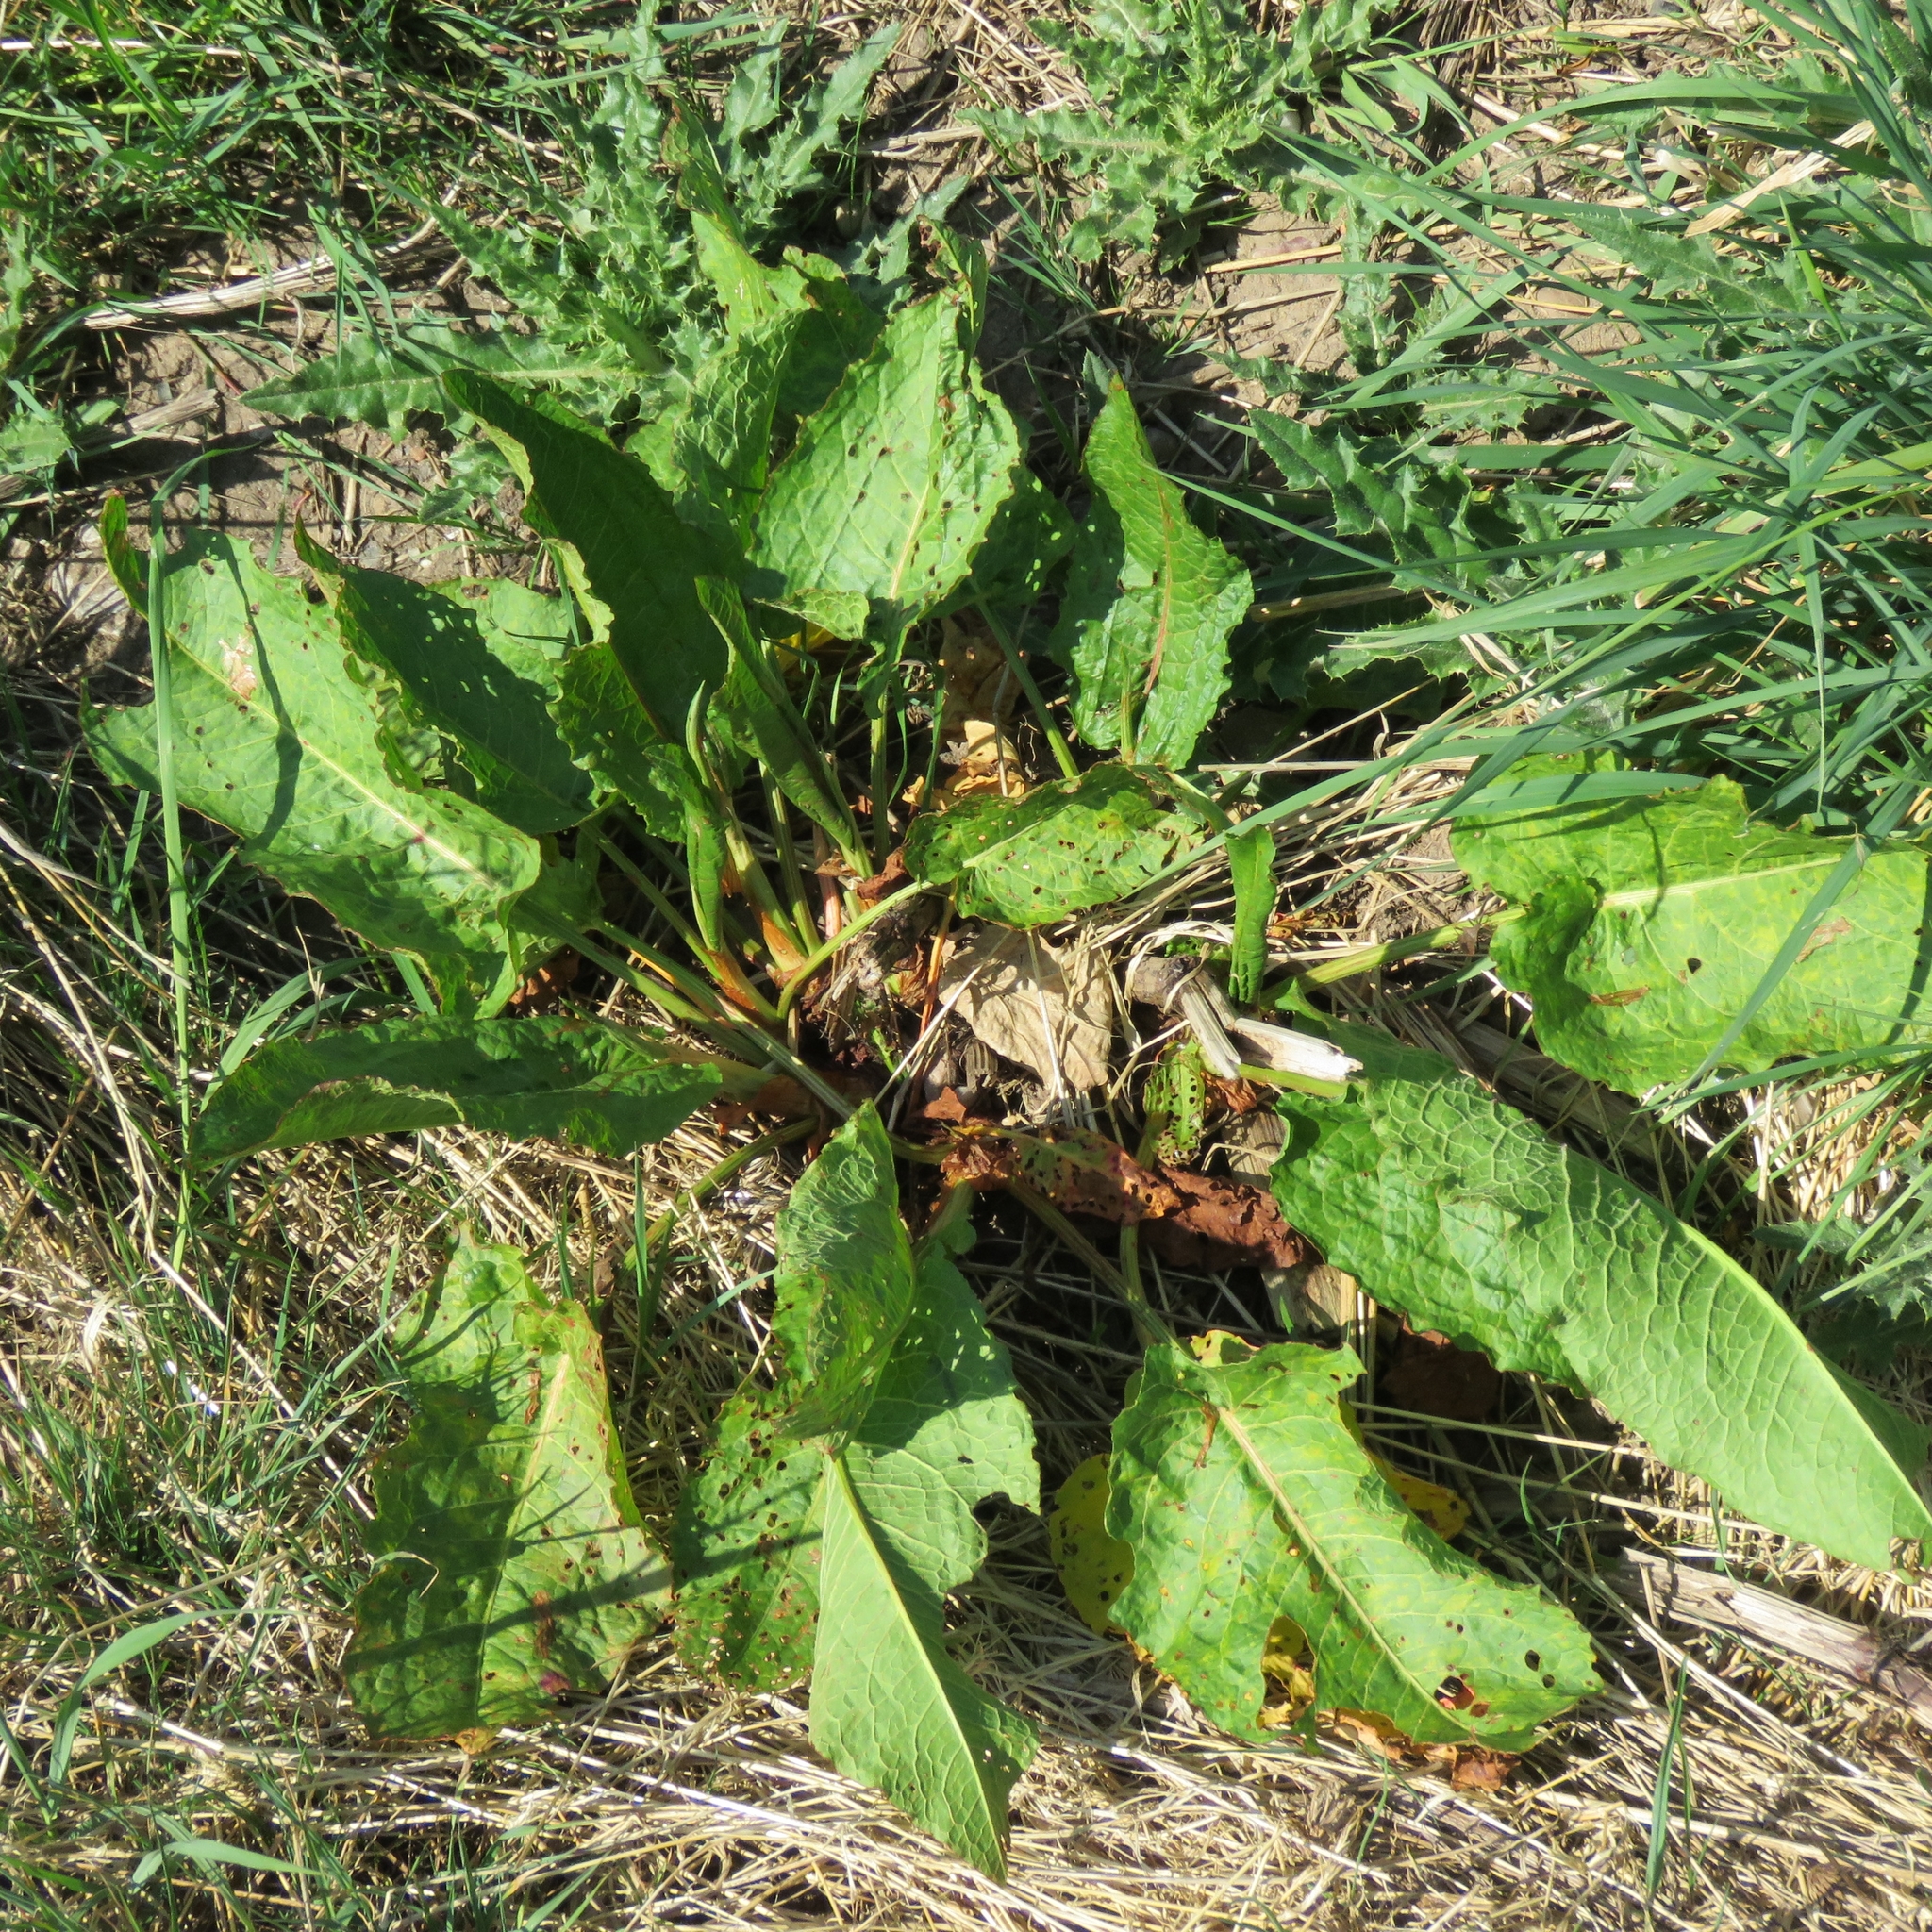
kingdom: Plantae
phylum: Tracheophyta
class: Magnoliopsida
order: Caryophyllales
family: Polygonaceae
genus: Rumex
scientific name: Rumex obtusifolius
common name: Bitter dock
